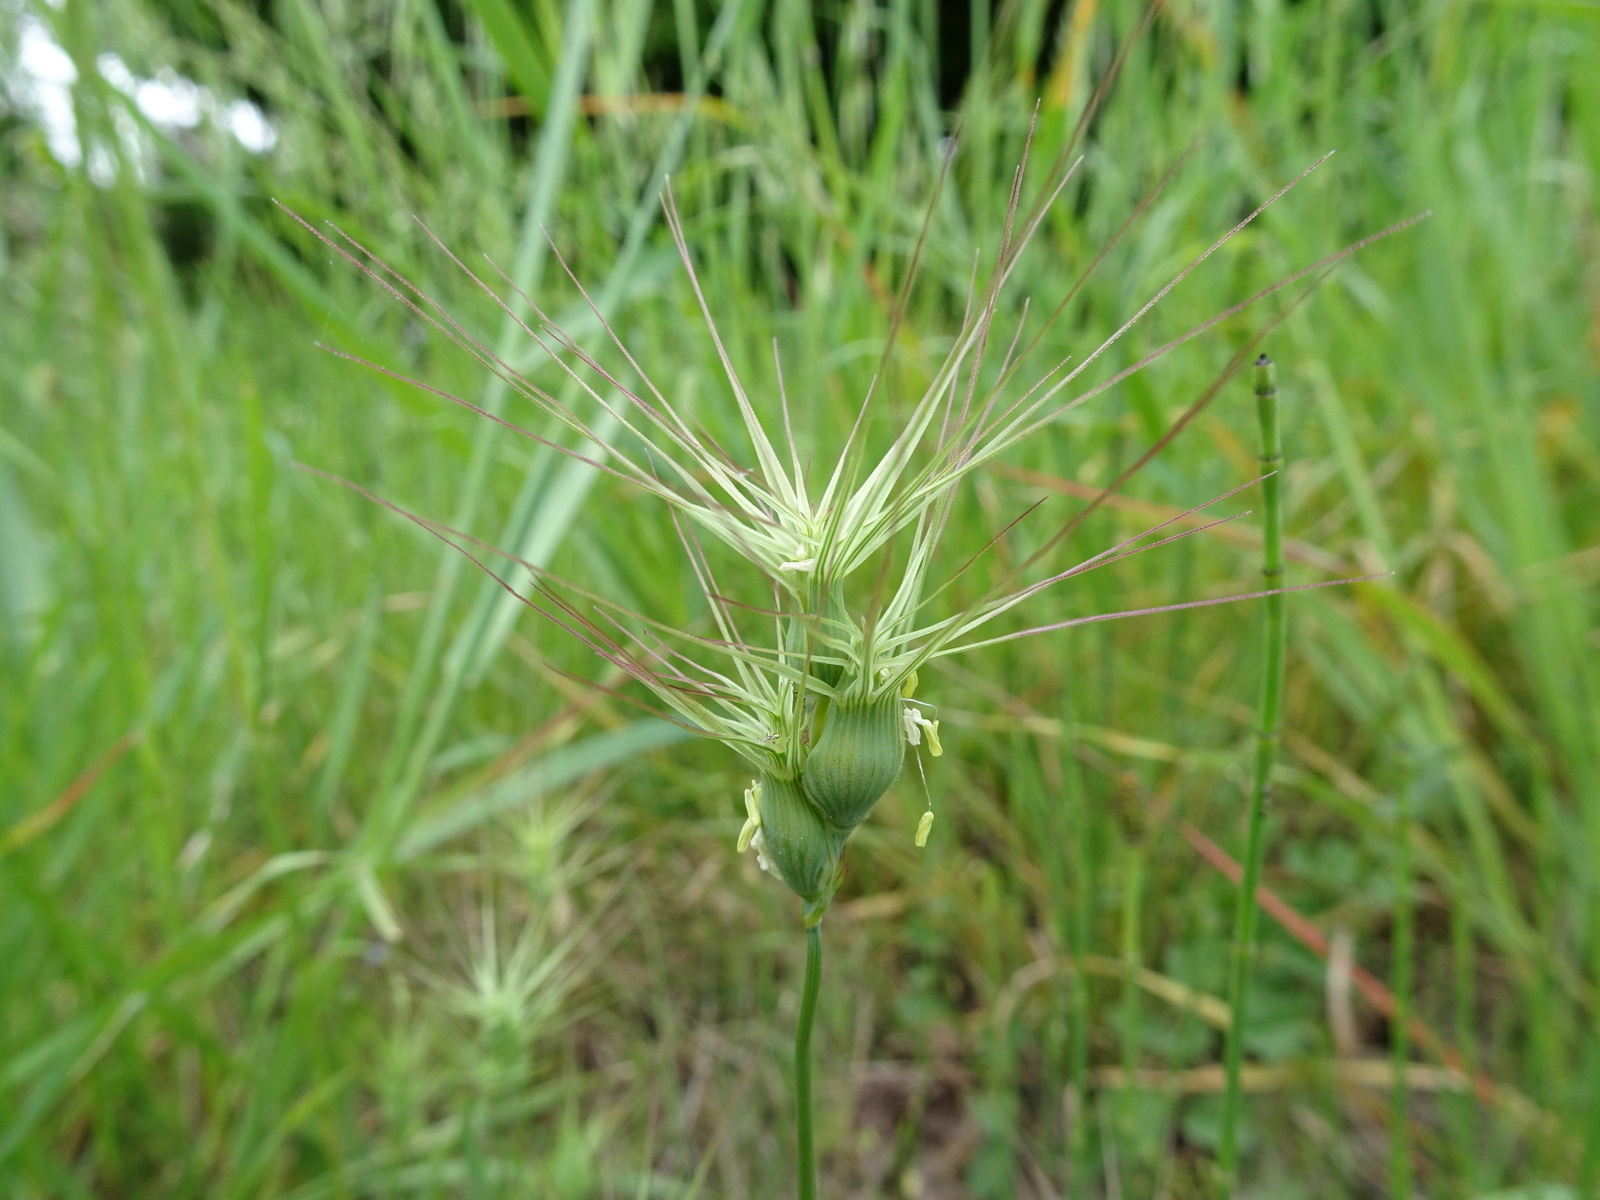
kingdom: Plantae
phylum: Tracheophyta
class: Liliopsida
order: Poales
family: Poaceae
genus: Aegilops
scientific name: Aegilops geniculata
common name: Ovate goat grass
